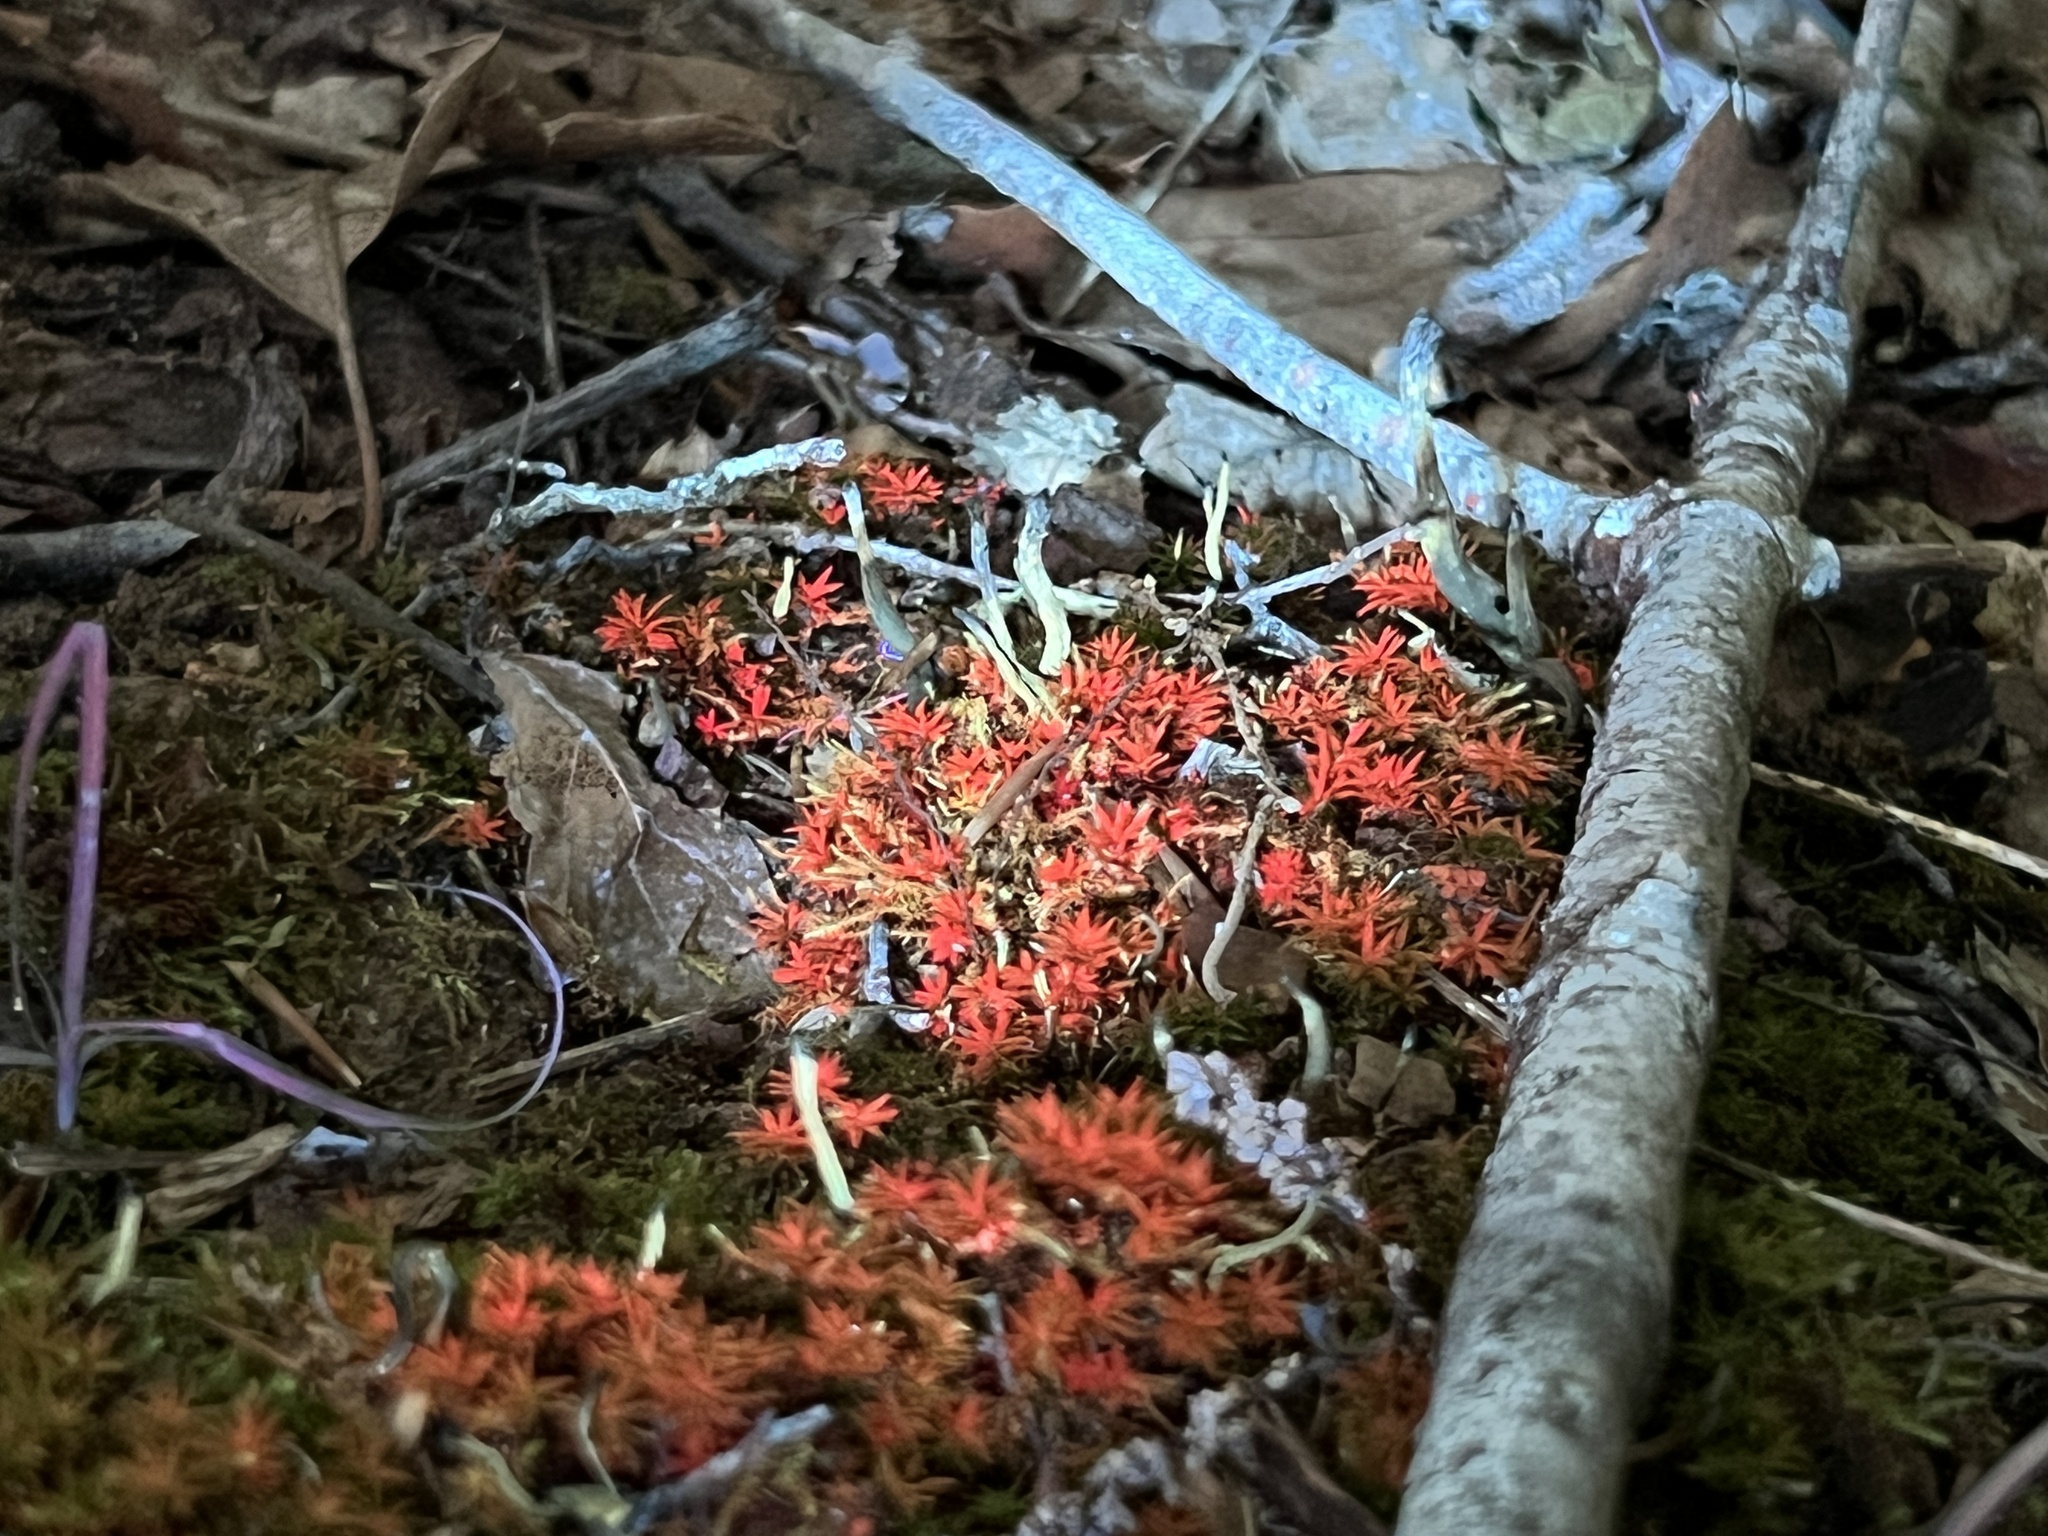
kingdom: Fungi
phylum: Basidiomycota
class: Agaricomycetes
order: Cantharellales
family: Hydnaceae
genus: Craterellus
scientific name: Craterellus cornucopioides
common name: Horn of plenty
